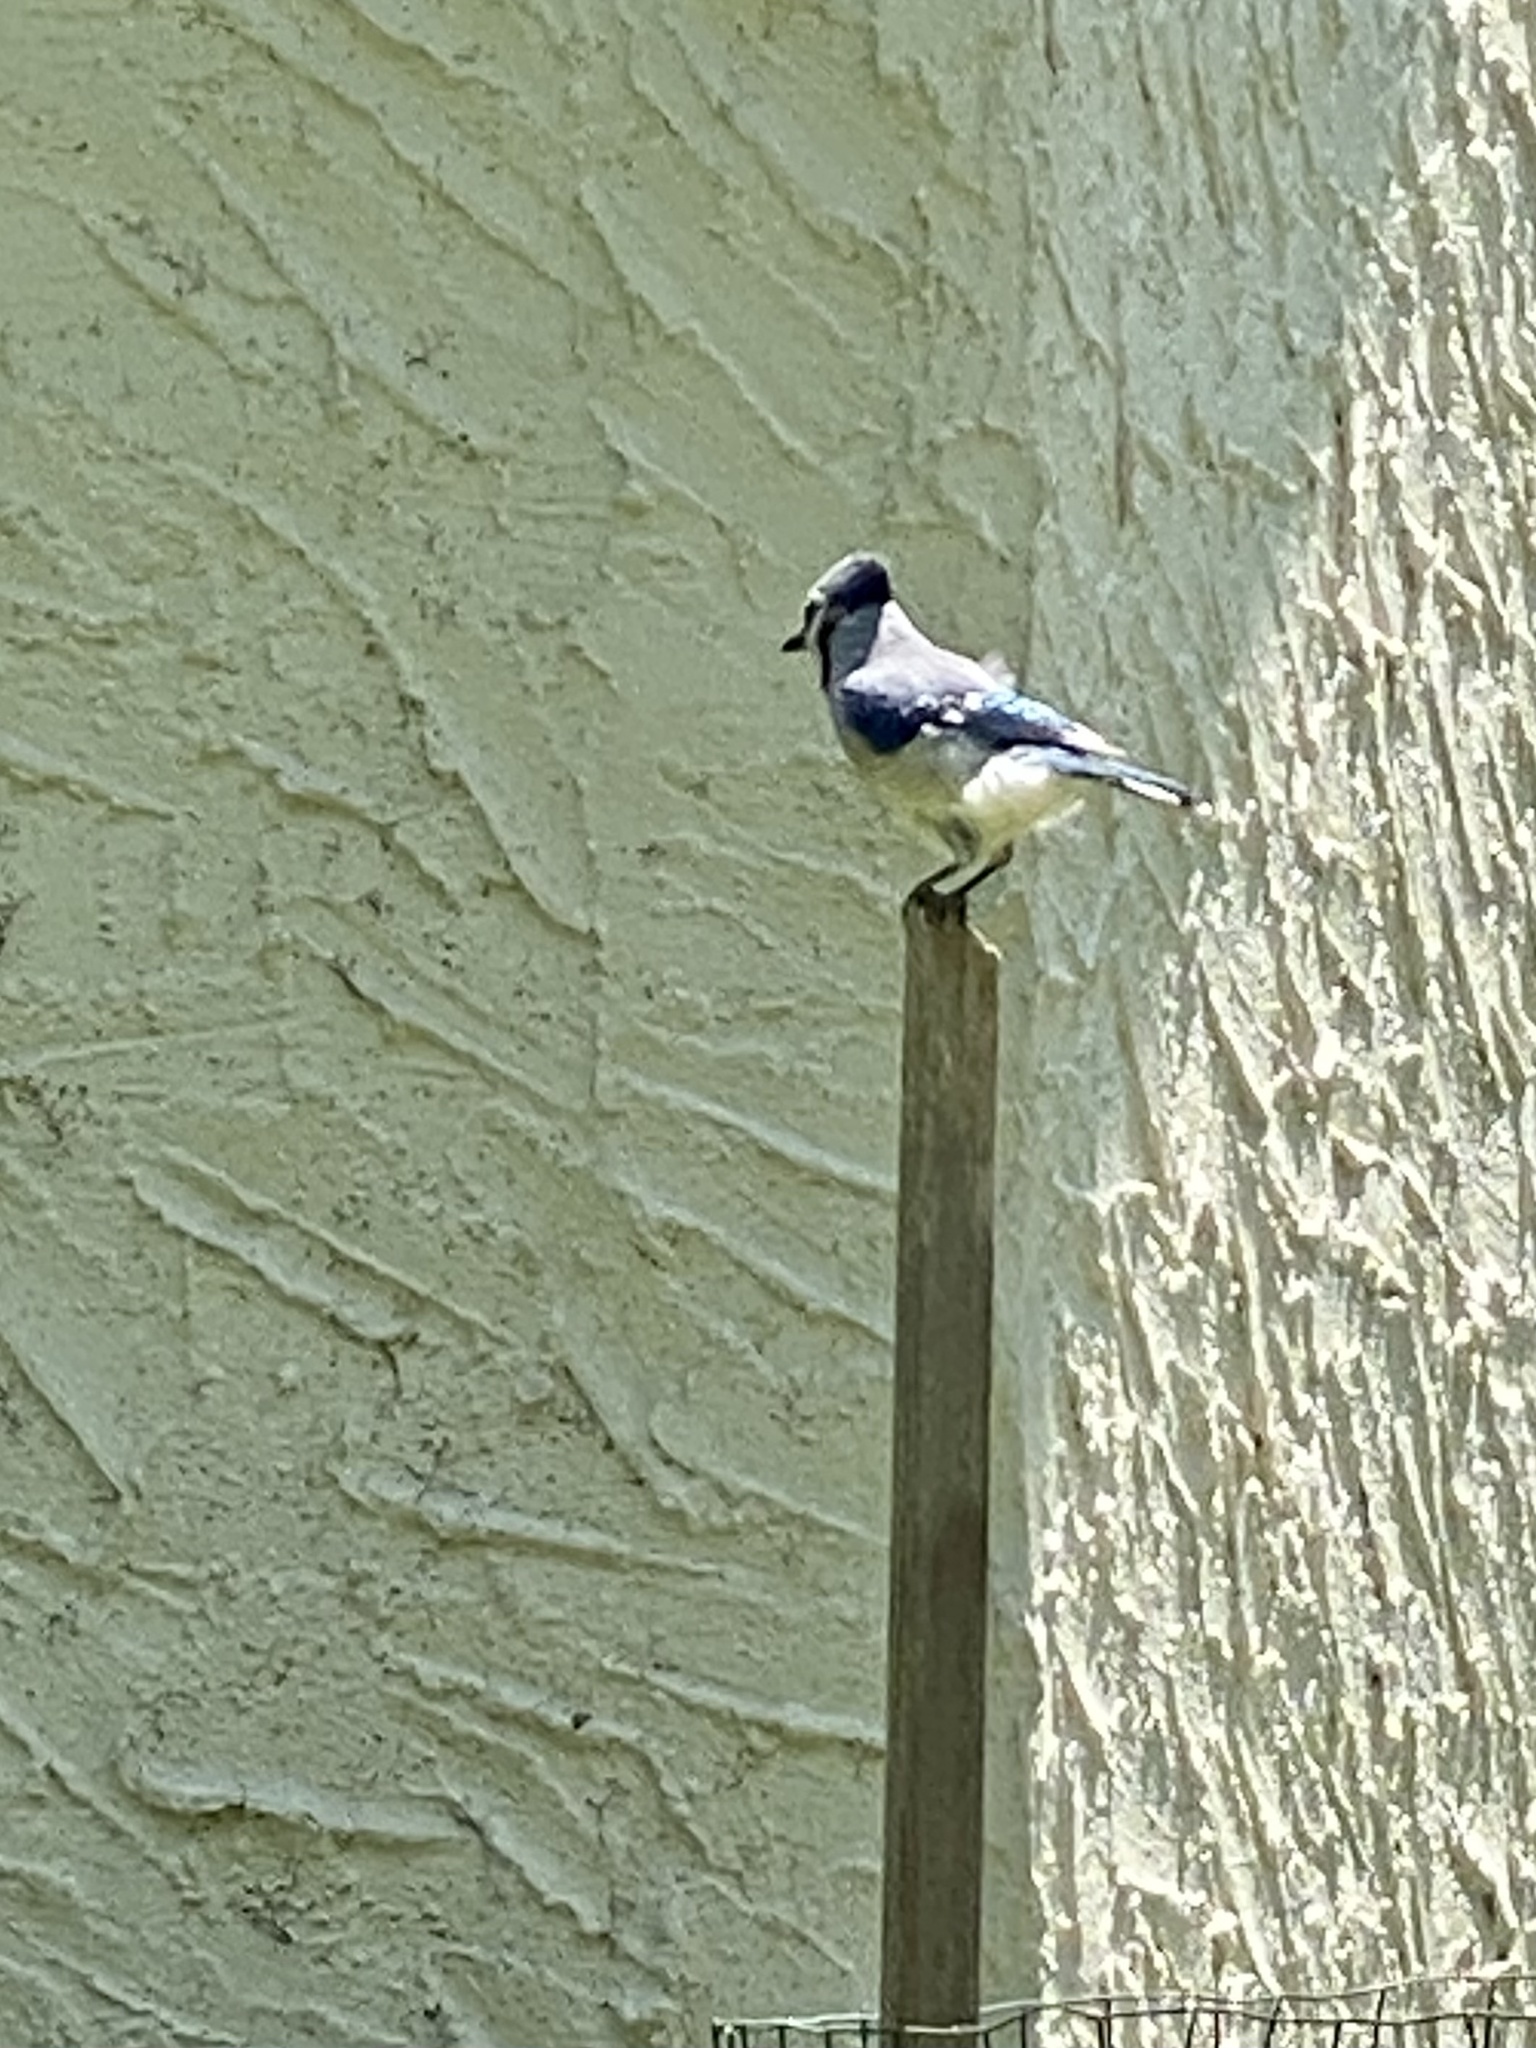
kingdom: Animalia
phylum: Chordata
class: Aves
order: Passeriformes
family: Corvidae
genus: Cyanocitta
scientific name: Cyanocitta cristata
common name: Blue jay
